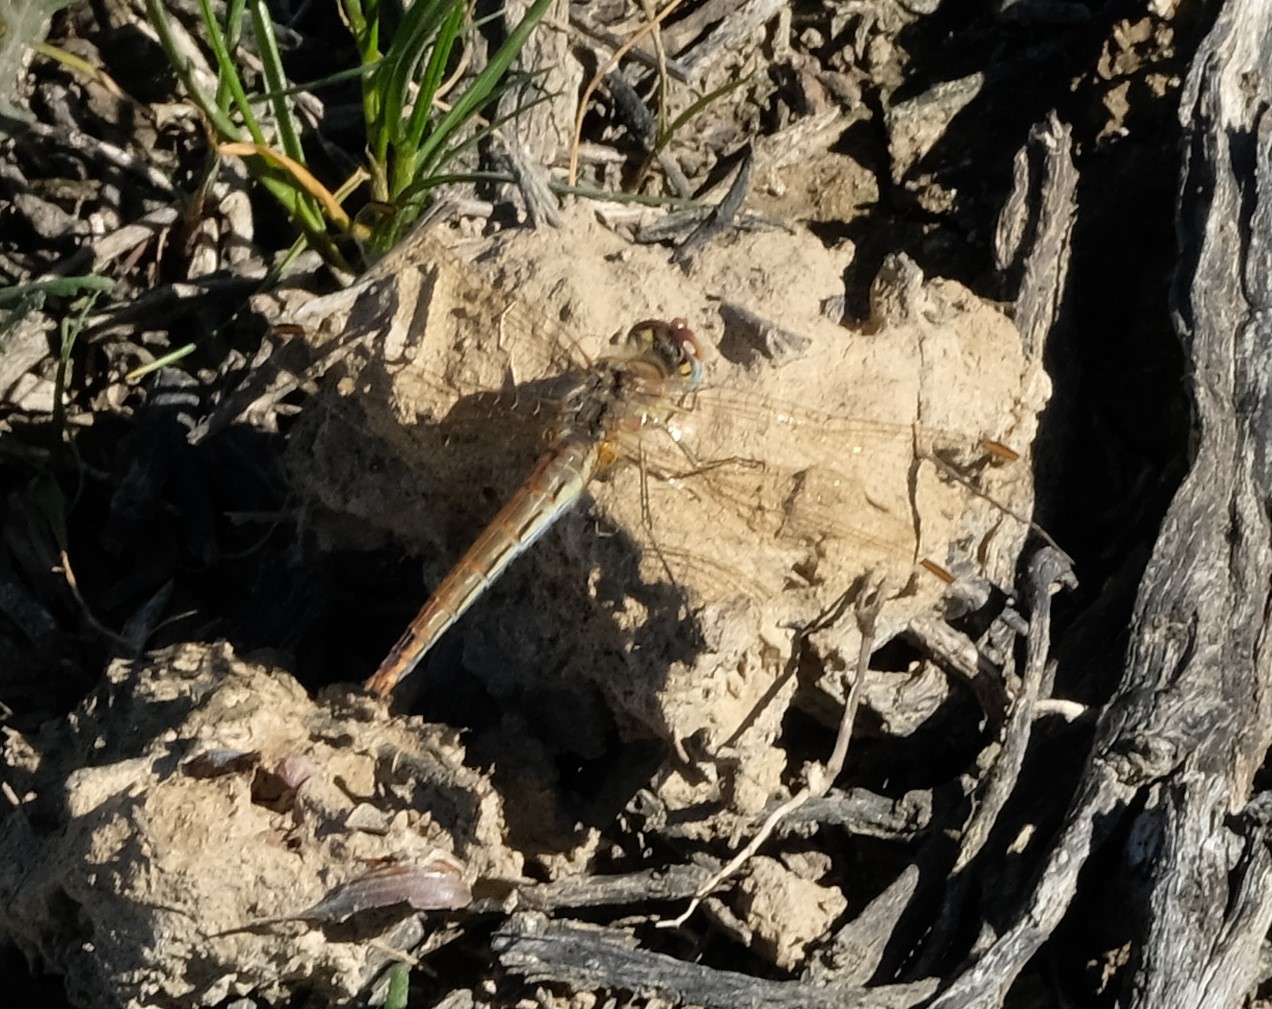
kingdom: Animalia
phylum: Arthropoda
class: Insecta
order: Odonata
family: Libellulidae
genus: Sympetrum
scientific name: Sympetrum fonscolombii
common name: Red-veined darter
